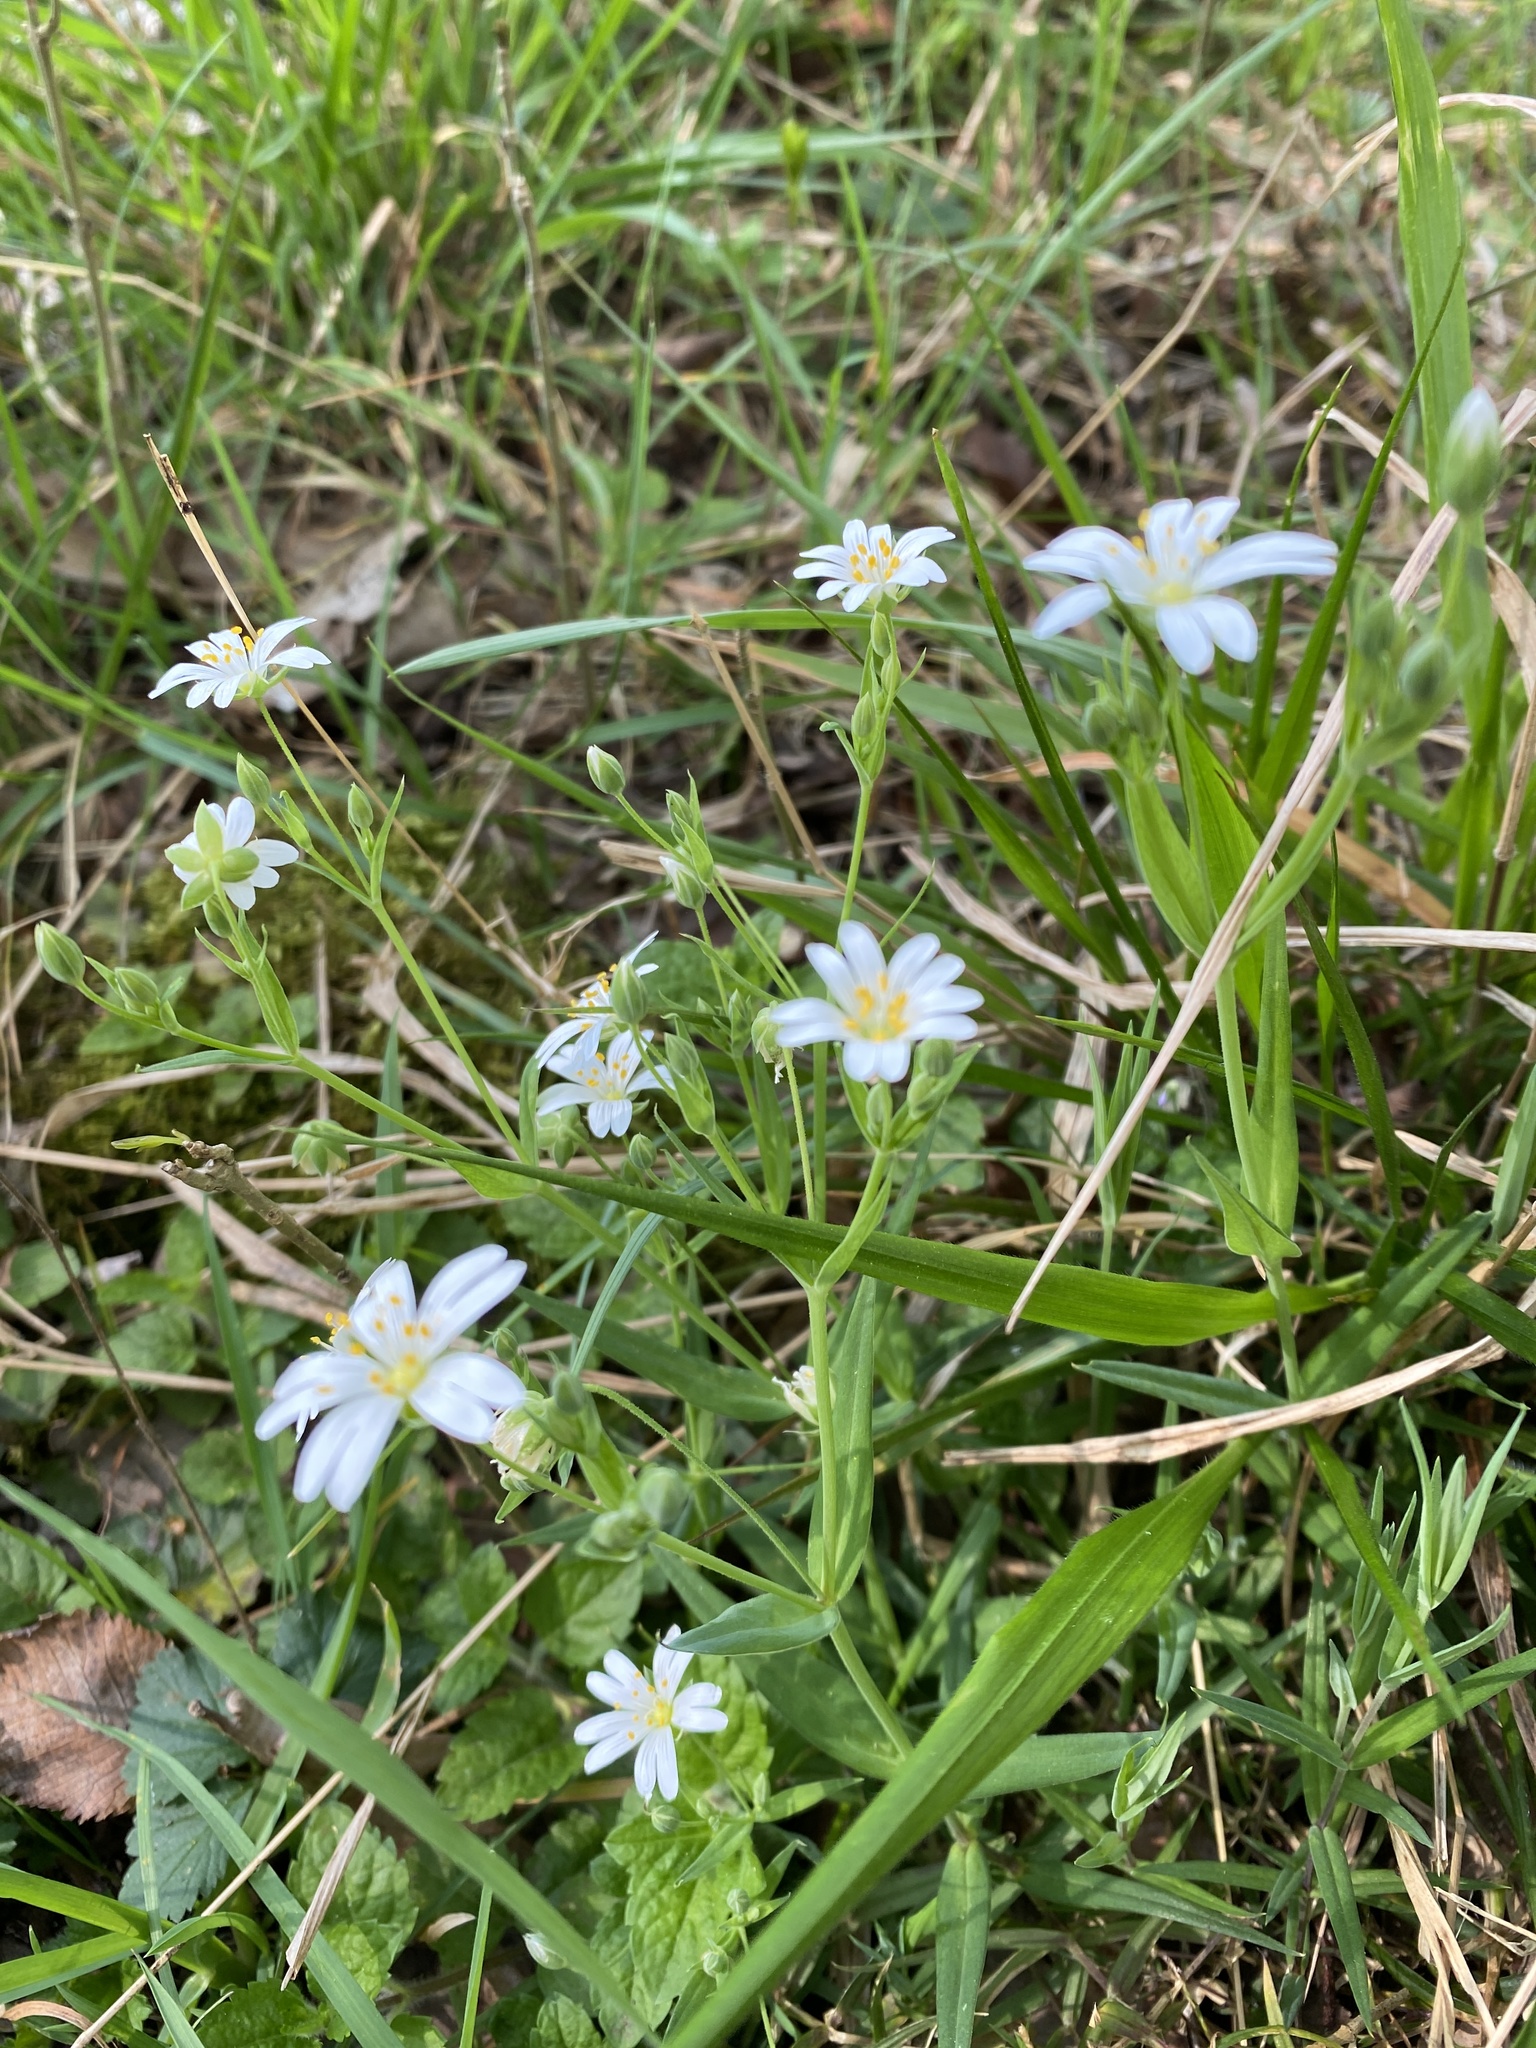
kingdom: Plantae
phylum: Tracheophyta
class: Magnoliopsida
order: Caryophyllales
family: Caryophyllaceae
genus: Rabelera
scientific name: Rabelera holostea
